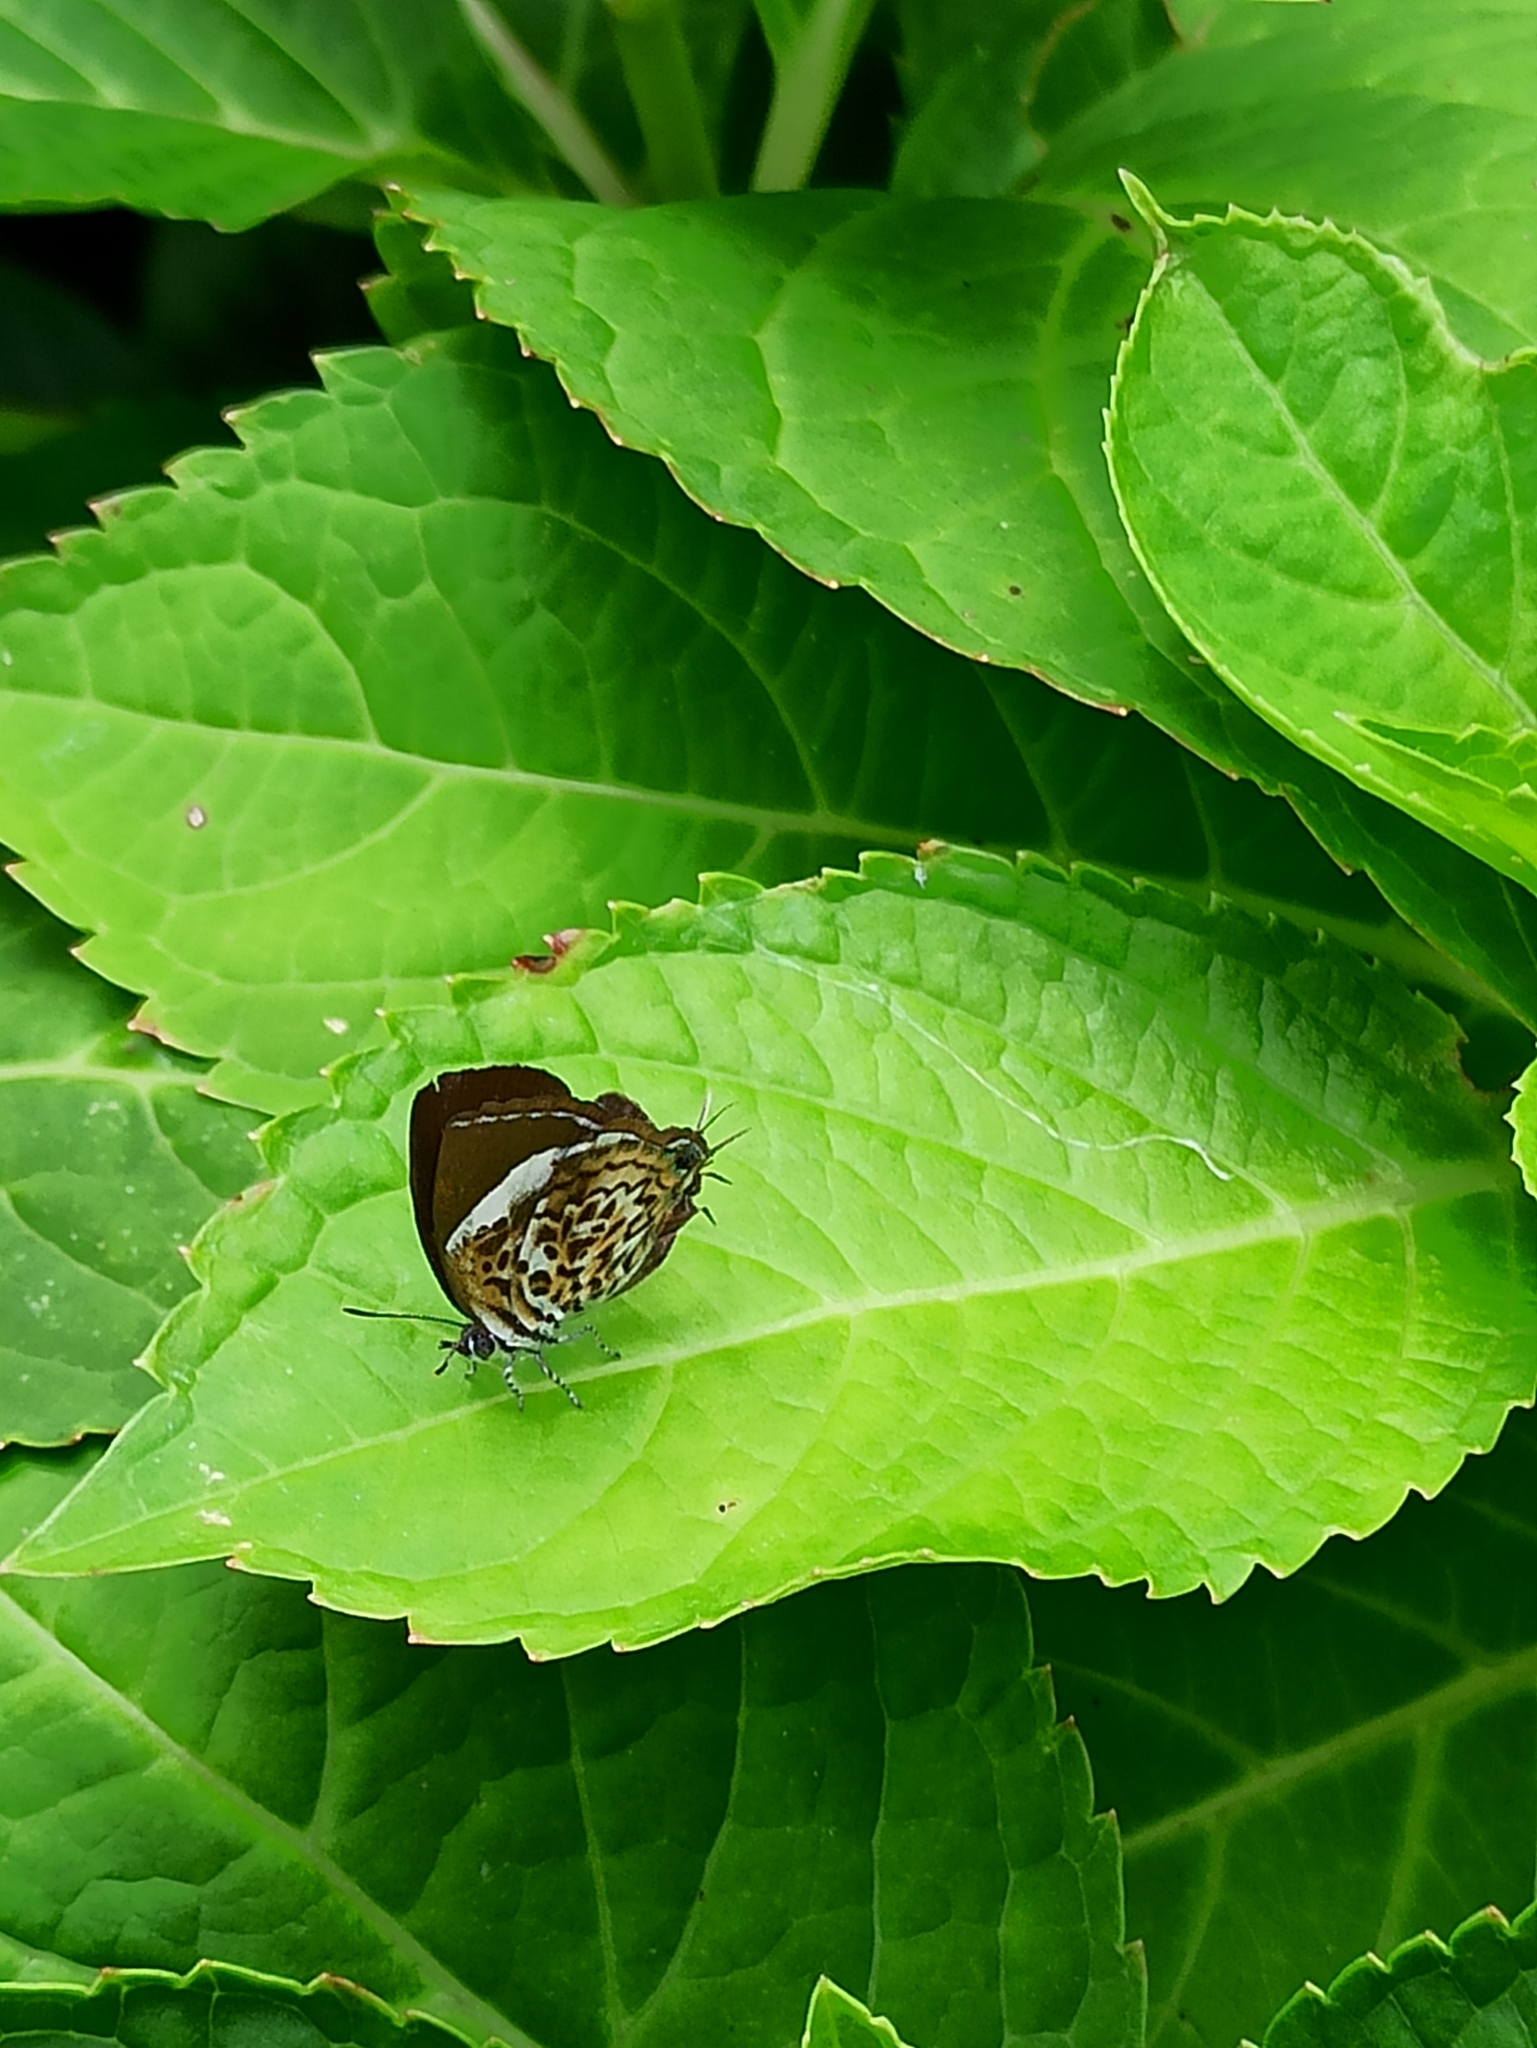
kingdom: Animalia
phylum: Arthropoda
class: Insecta
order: Lepidoptera
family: Lycaenidae
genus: Rathinda
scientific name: Rathinda amor
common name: Monkey puzzle
